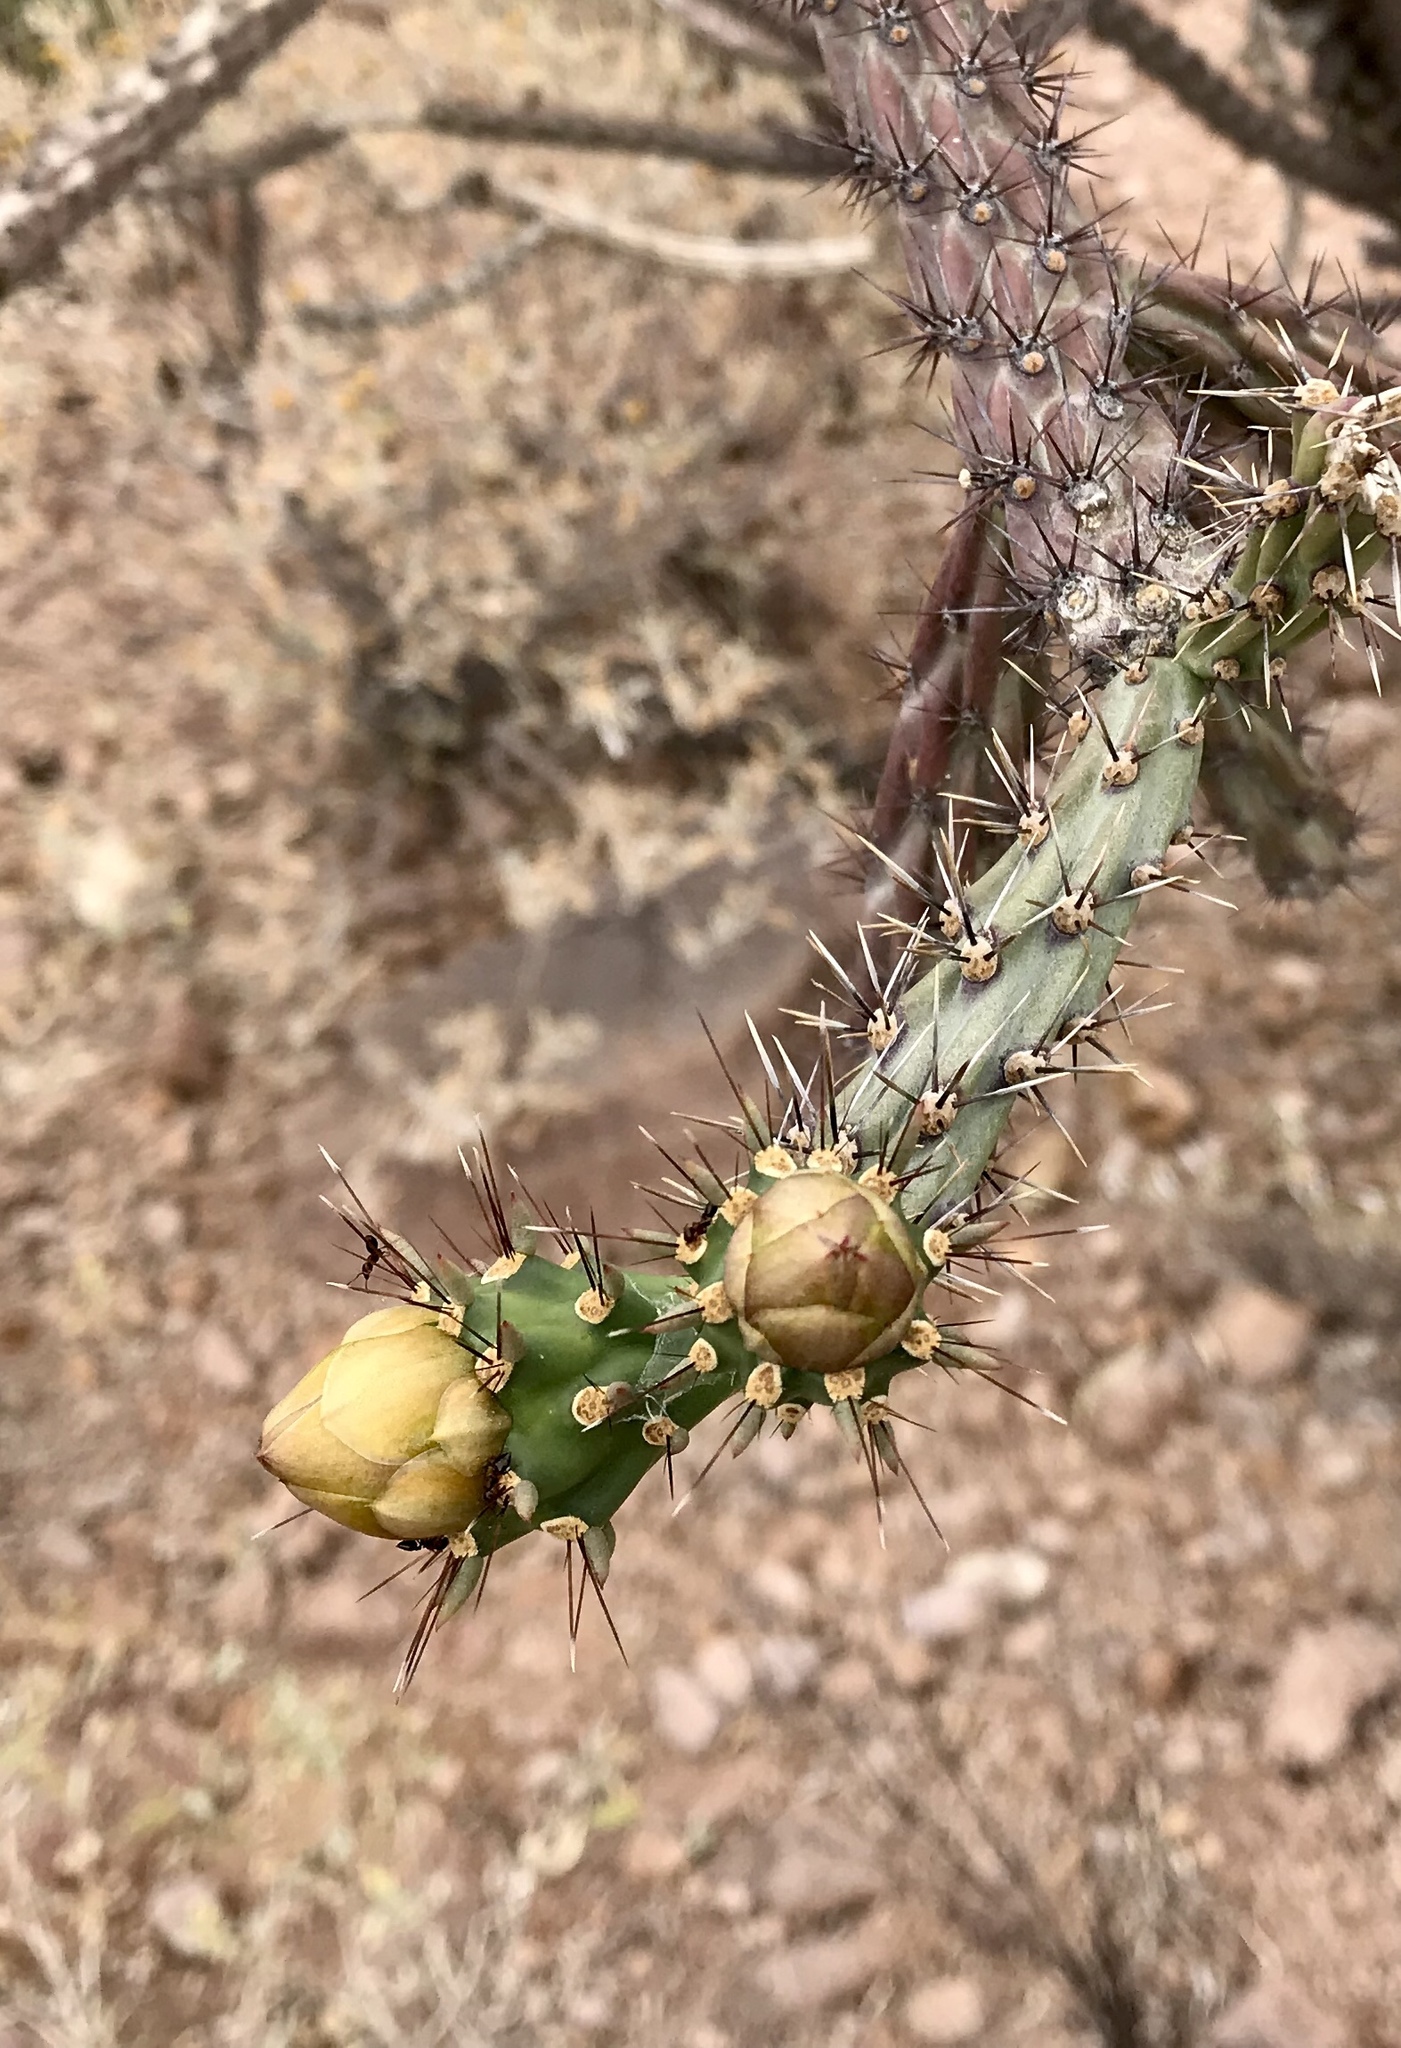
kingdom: Plantae
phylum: Tracheophyta
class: Magnoliopsida
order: Caryophyllales
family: Cactaceae
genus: Cylindropuntia
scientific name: Cylindropuntia thurberi
